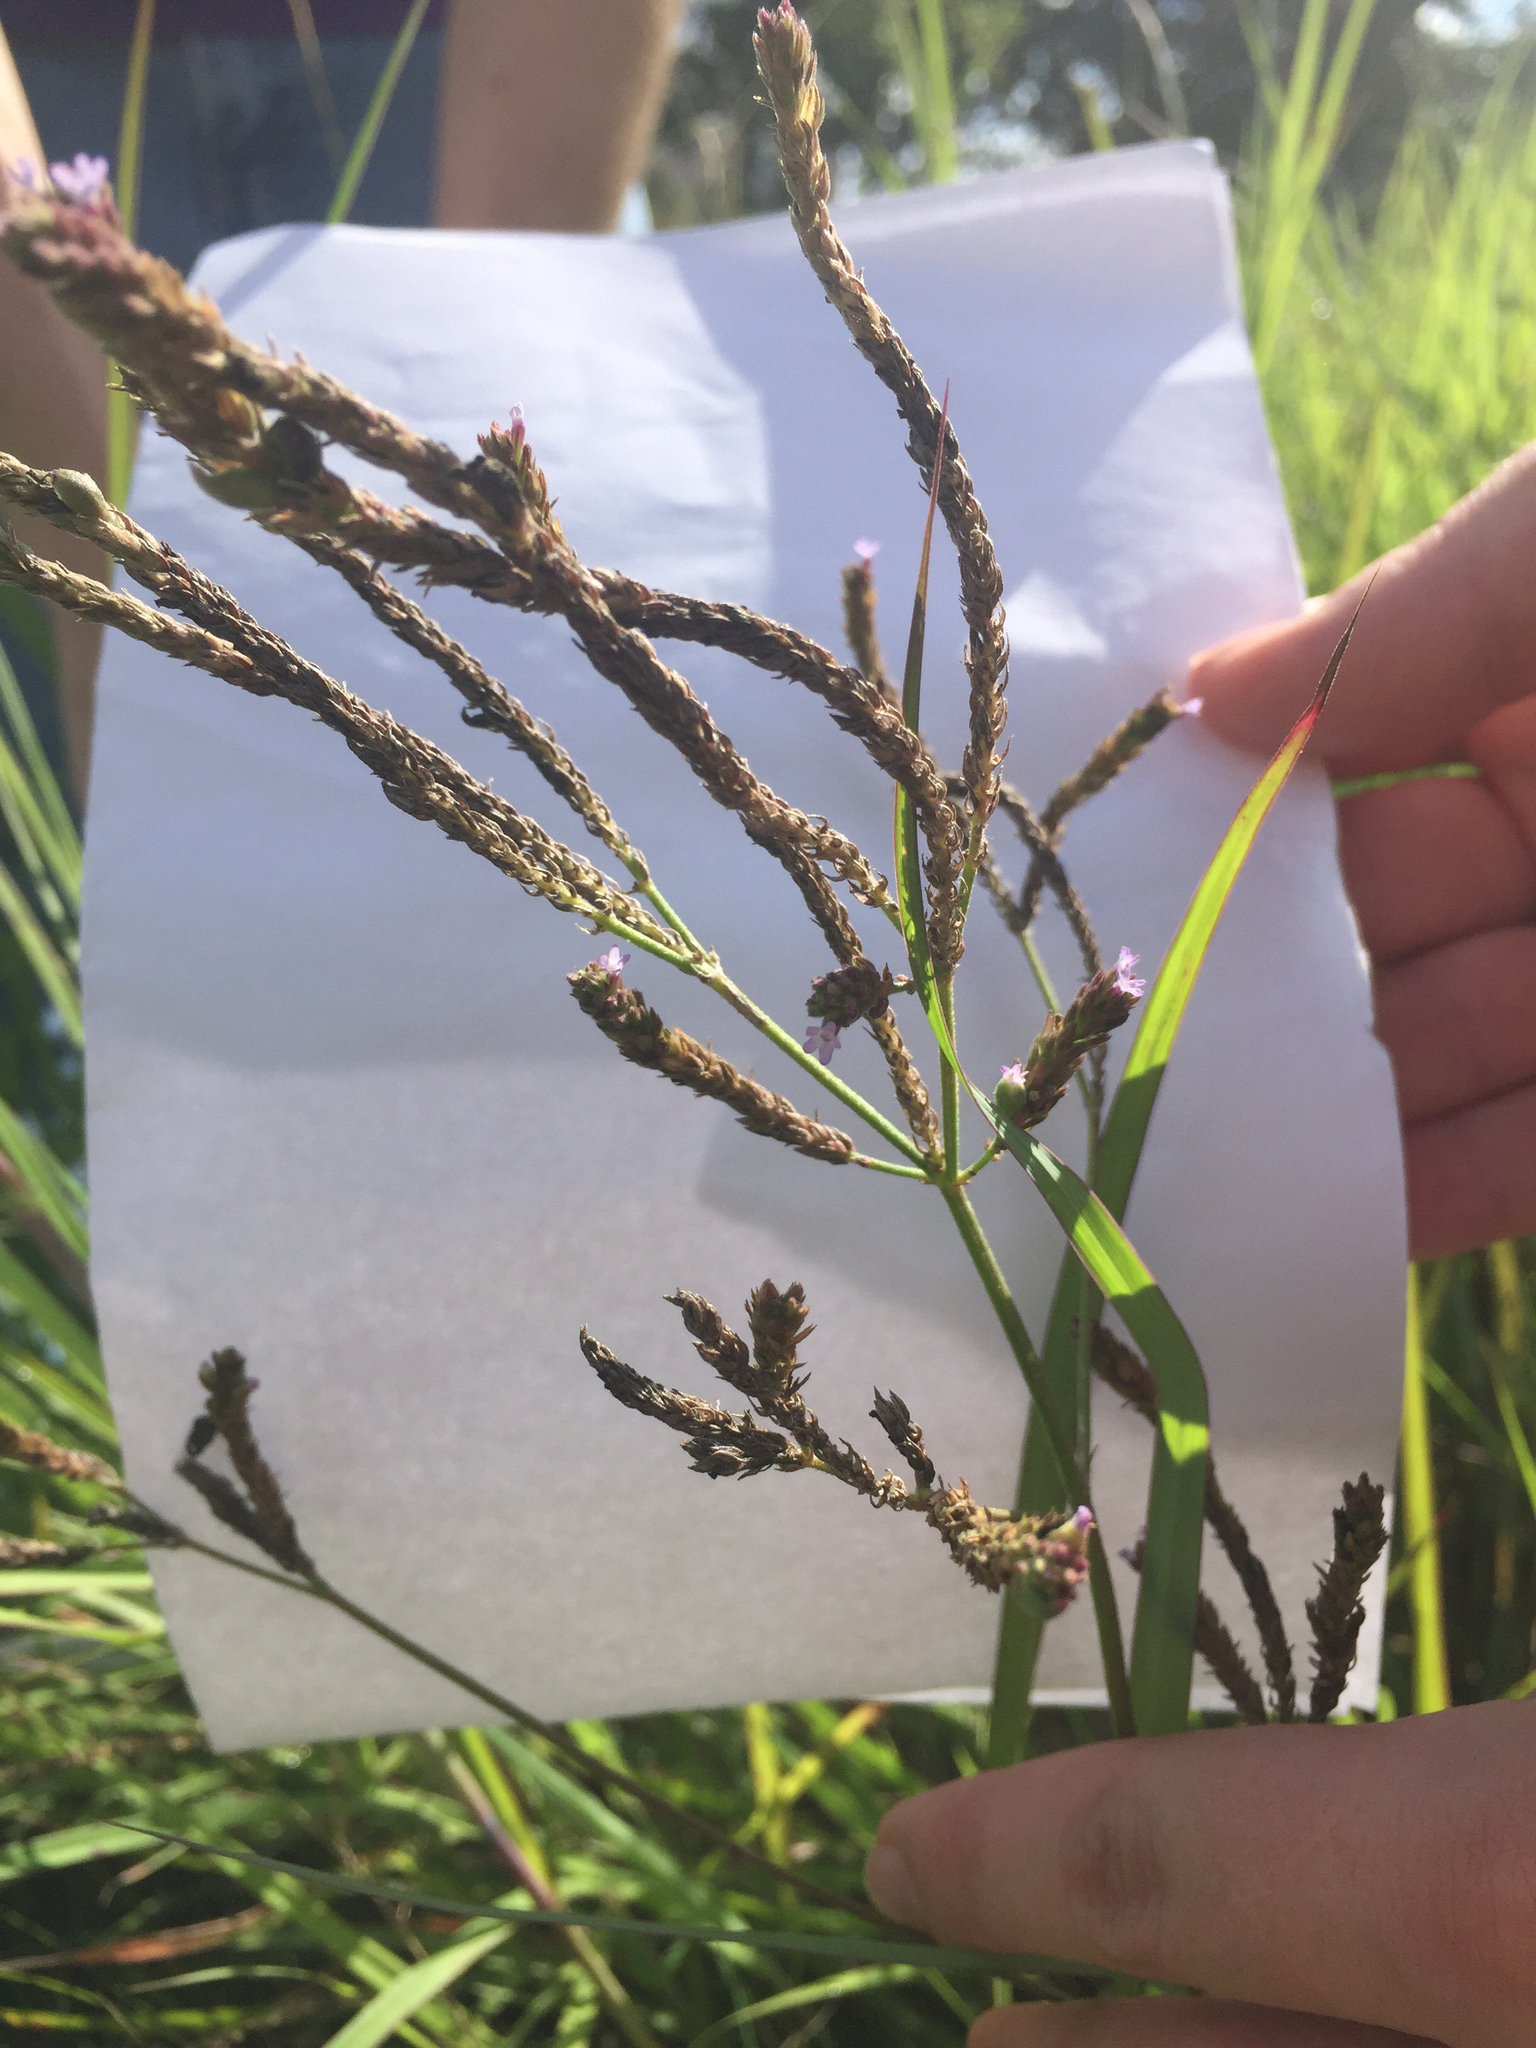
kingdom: Plantae
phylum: Tracheophyta
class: Magnoliopsida
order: Lamiales
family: Verbenaceae
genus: Verbena
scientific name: Verbena brasiliensis
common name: Brazilian vervain
